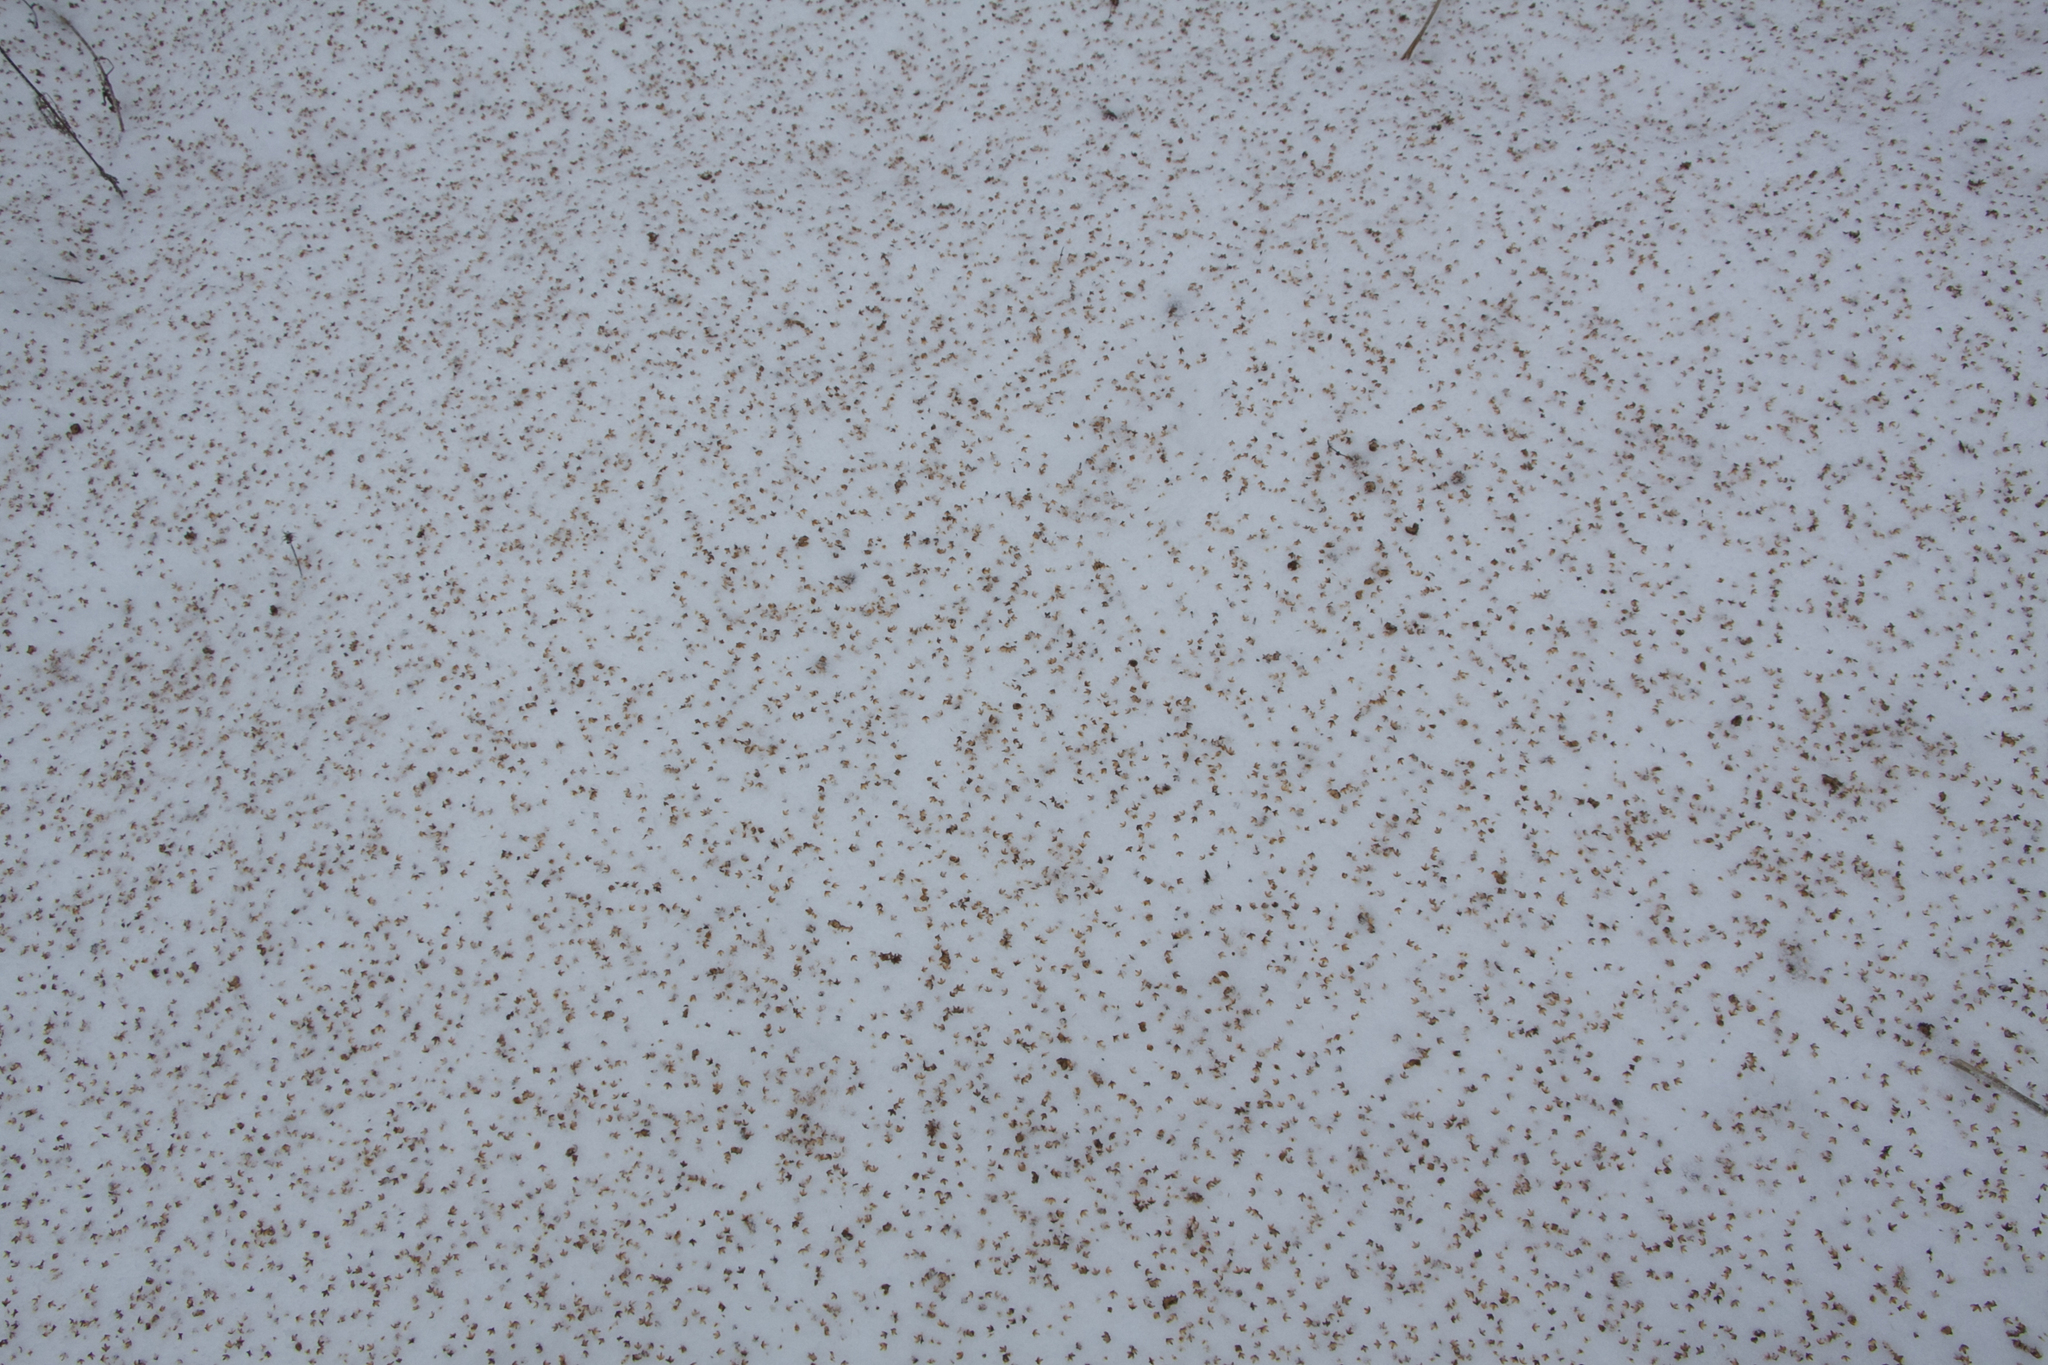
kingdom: Plantae
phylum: Tracheophyta
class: Magnoliopsida
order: Fagales
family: Betulaceae
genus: Betula
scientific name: Betula pendula
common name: Silver birch
